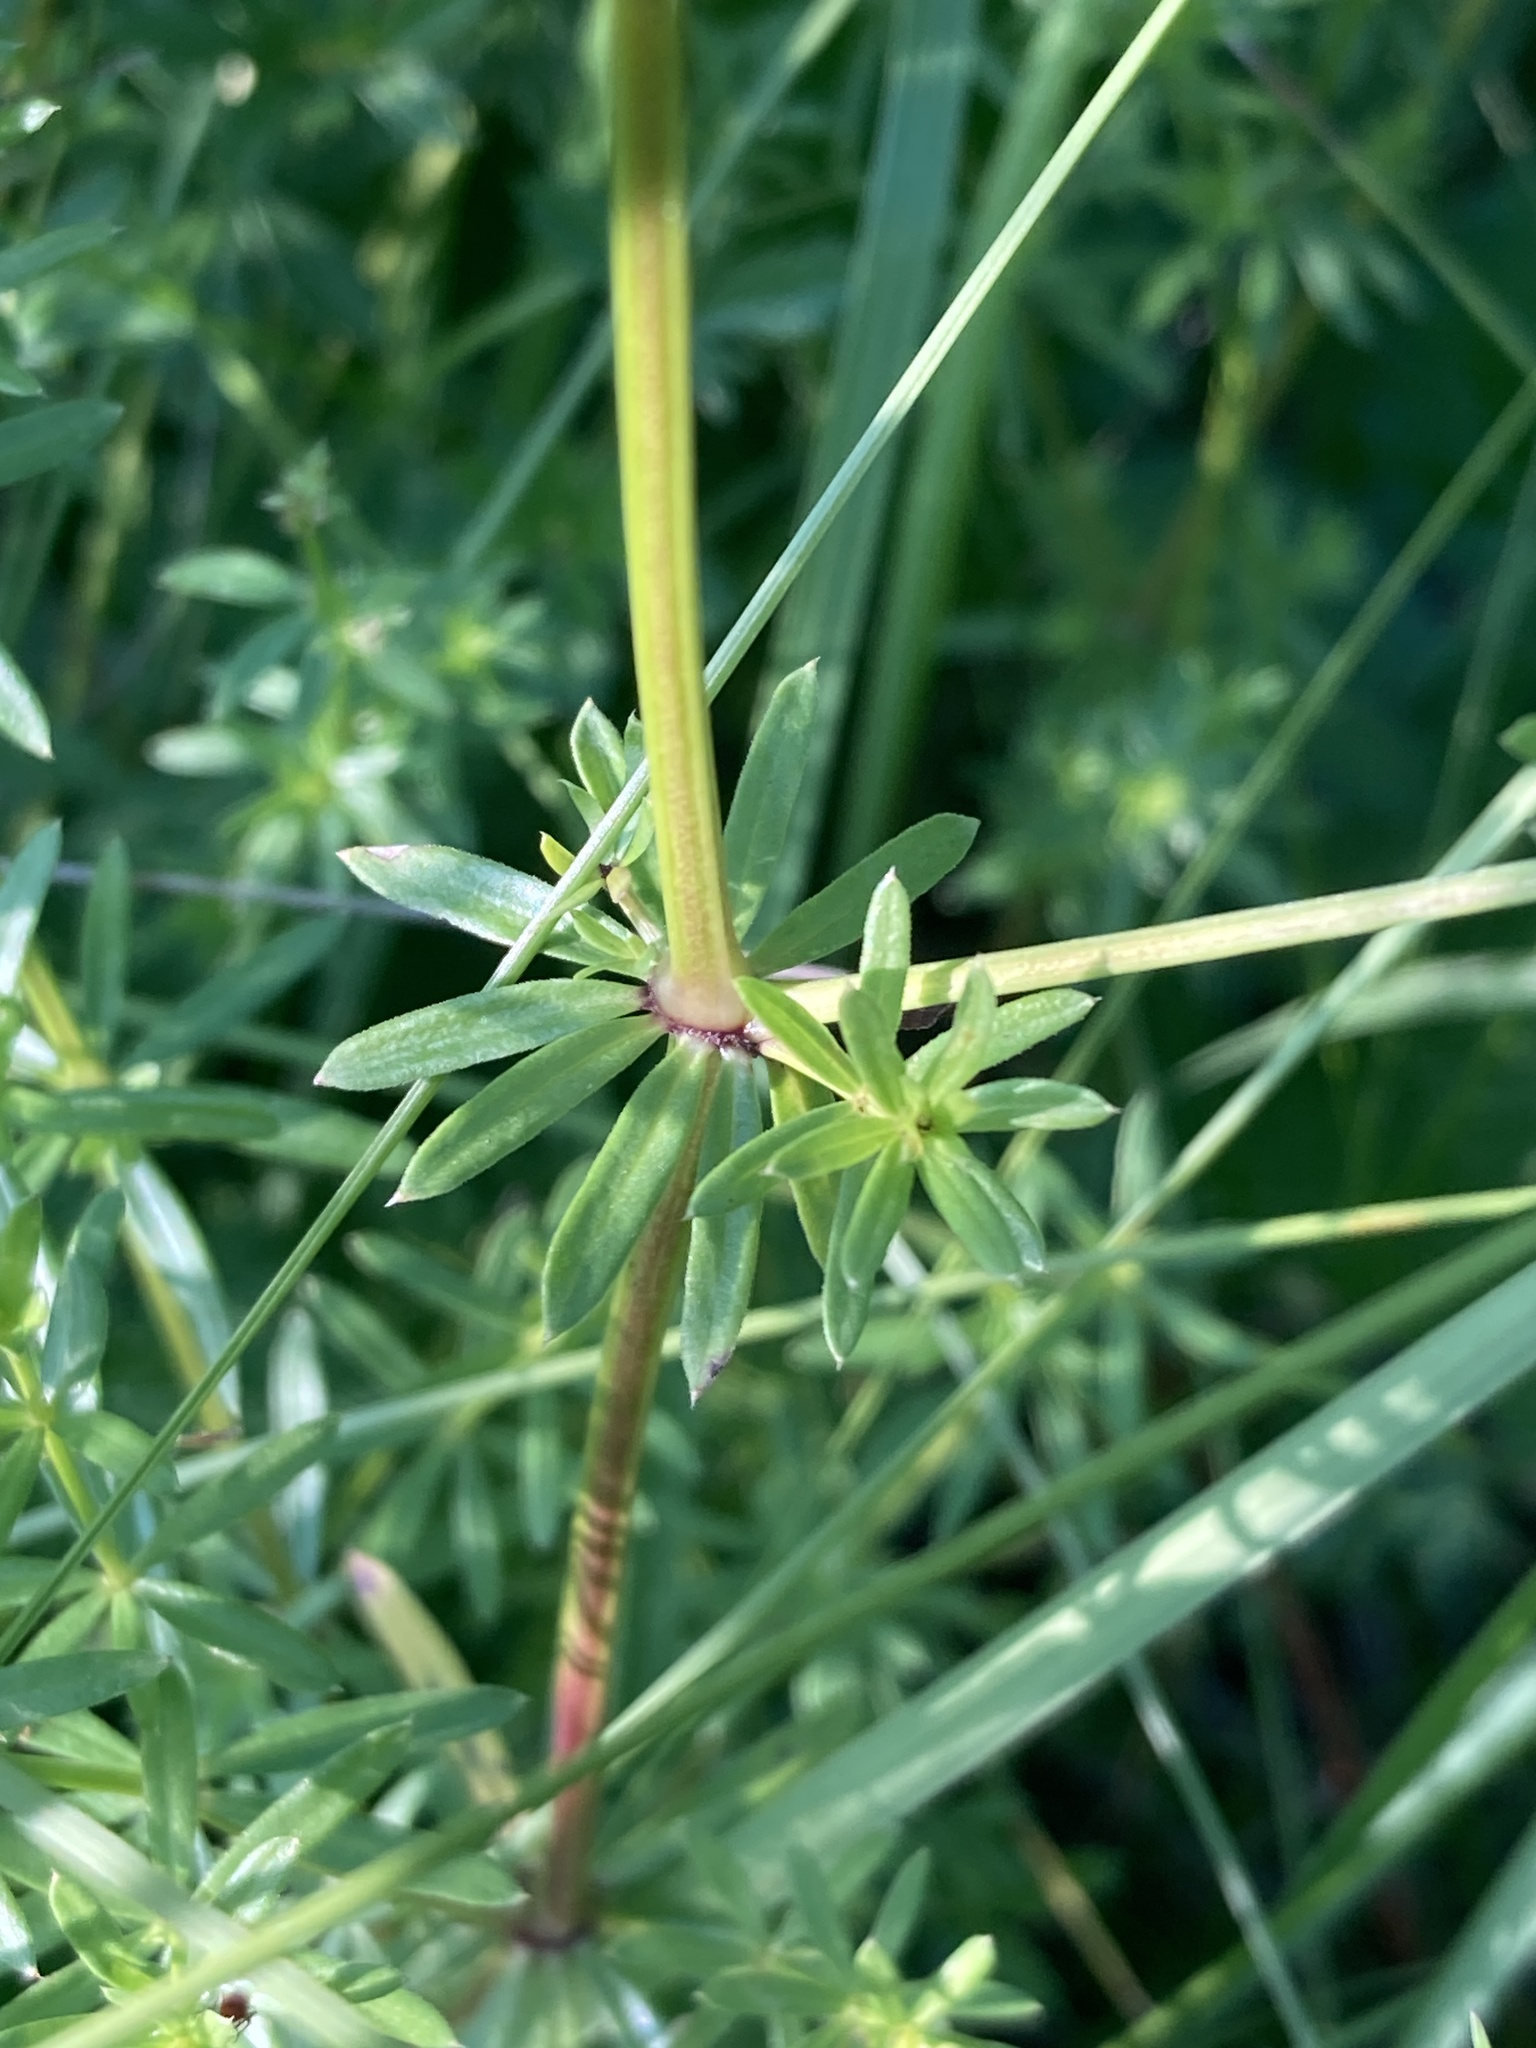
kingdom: Plantae
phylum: Tracheophyta
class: Magnoliopsida
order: Gentianales
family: Rubiaceae
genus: Galium
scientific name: Galium mollugo
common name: Hedge bedstraw
